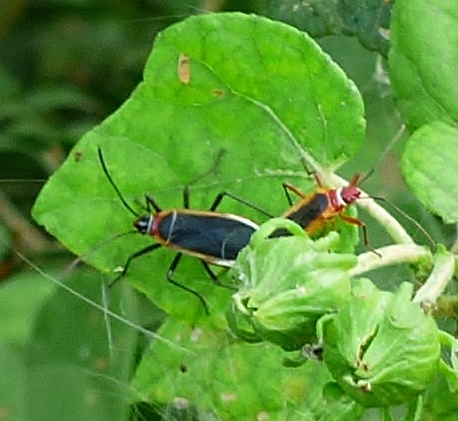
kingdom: Animalia
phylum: Arthropoda
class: Insecta
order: Hemiptera
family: Pyrrhocoridae
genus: Dysdercus
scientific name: Dysdercus mimulus
